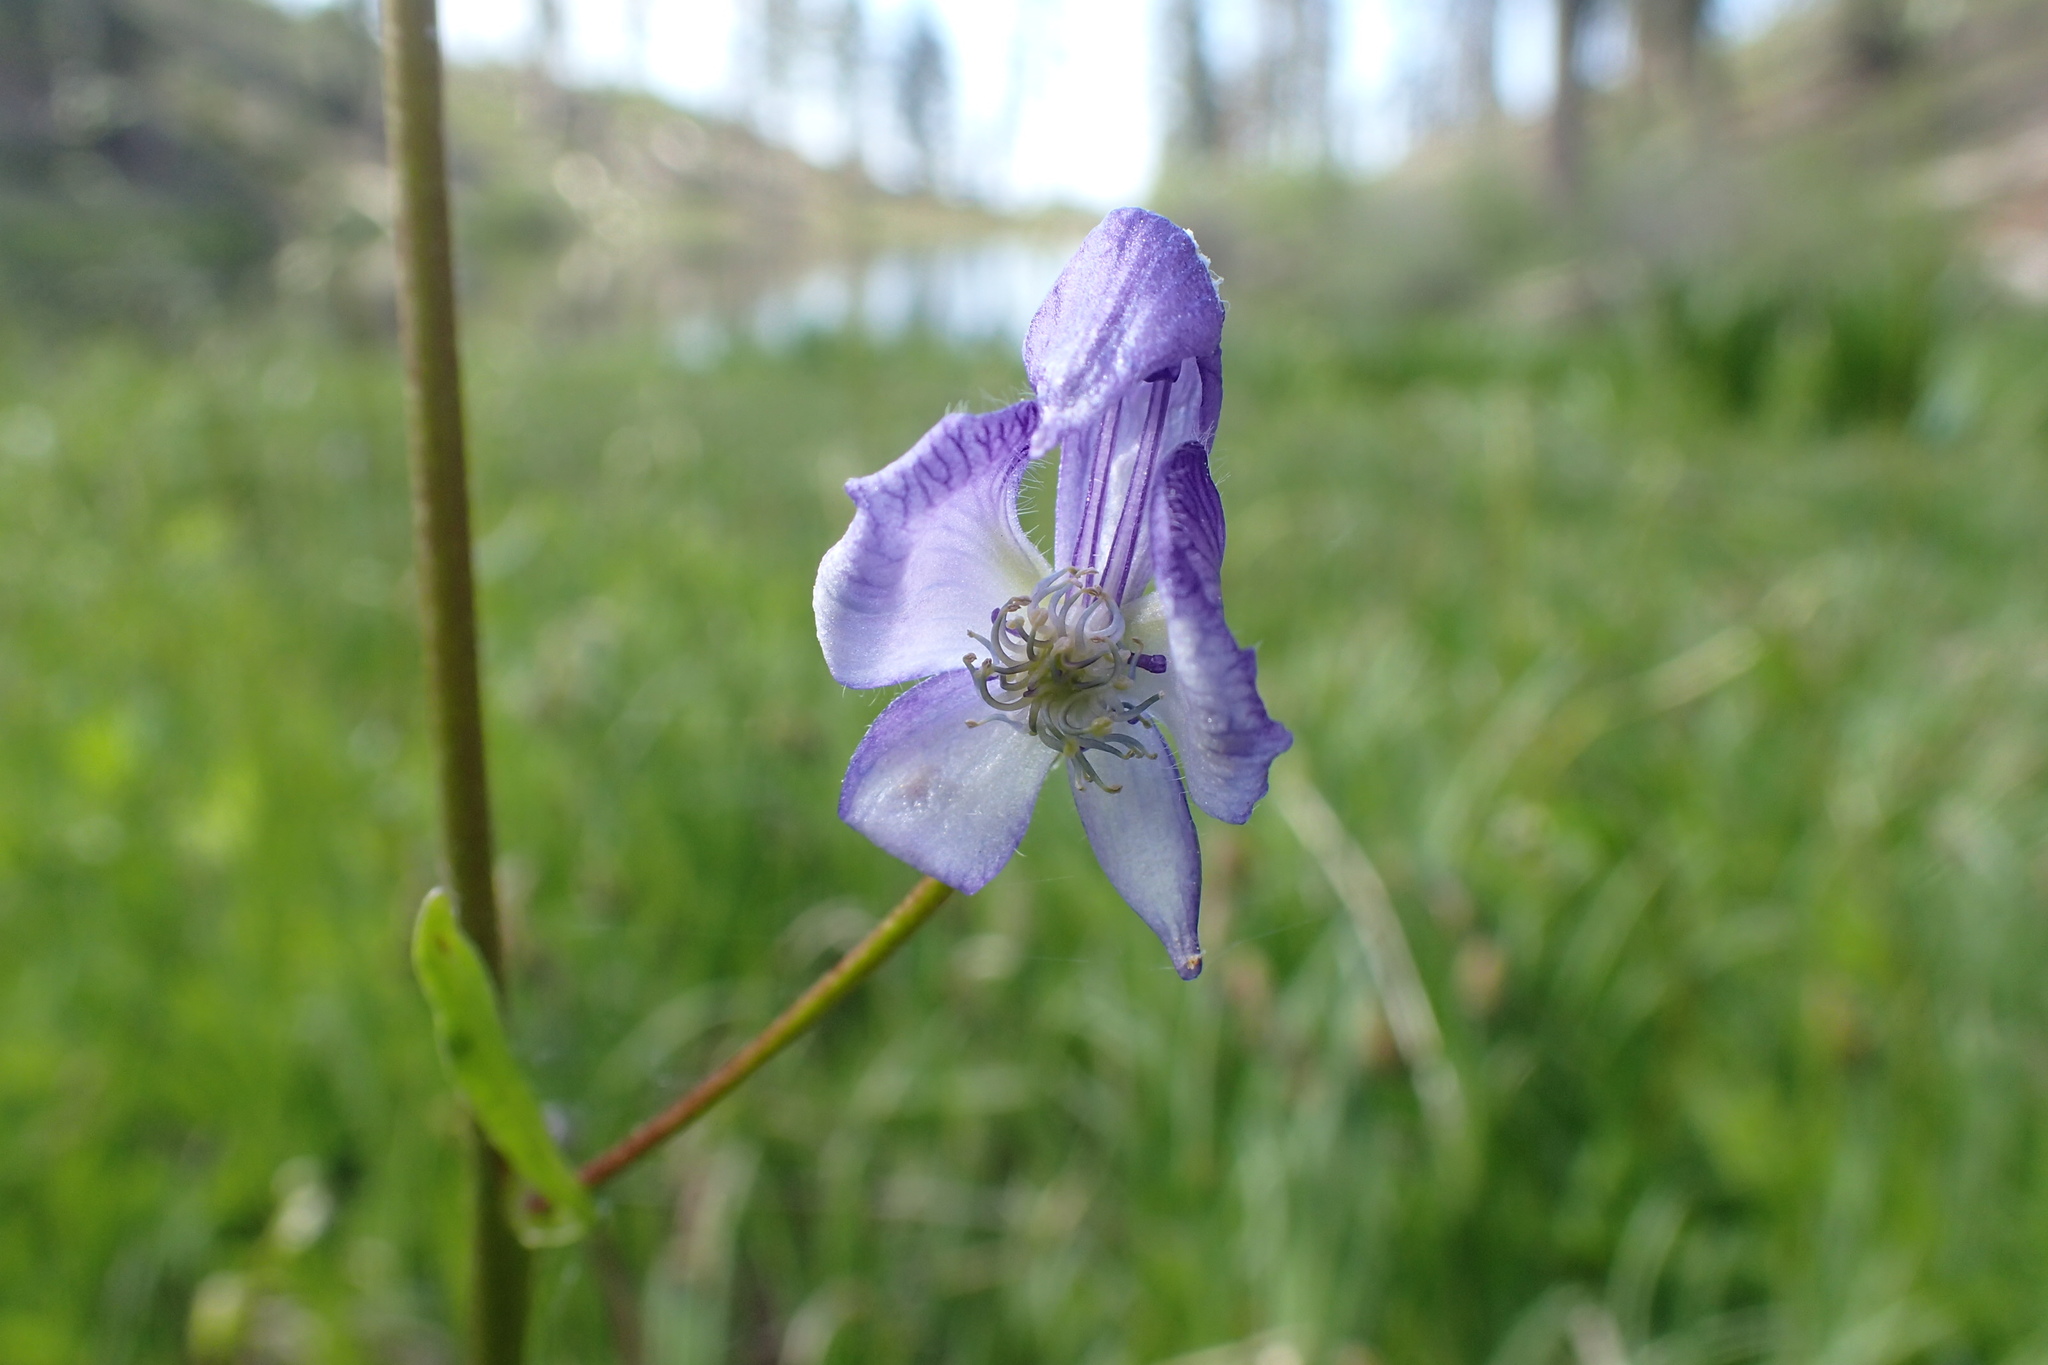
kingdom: Plantae
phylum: Tracheophyta
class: Magnoliopsida
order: Ranunculales
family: Ranunculaceae
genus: Aconitum
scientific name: Aconitum columbianum
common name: Columbia aconite
